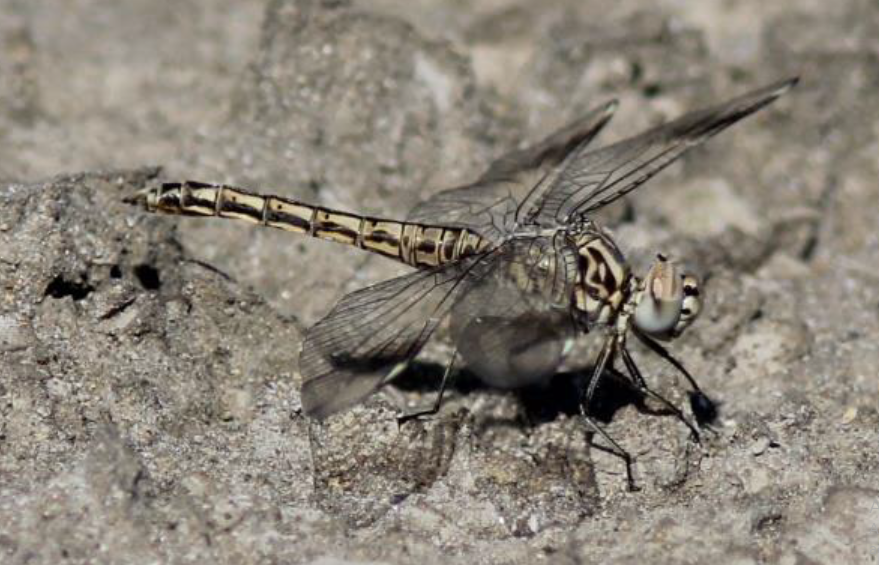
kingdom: Animalia
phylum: Arthropoda
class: Insecta
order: Odonata
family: Libellulidae
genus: Brachythemis
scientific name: Brachythemis impartita
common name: Banded groundling
